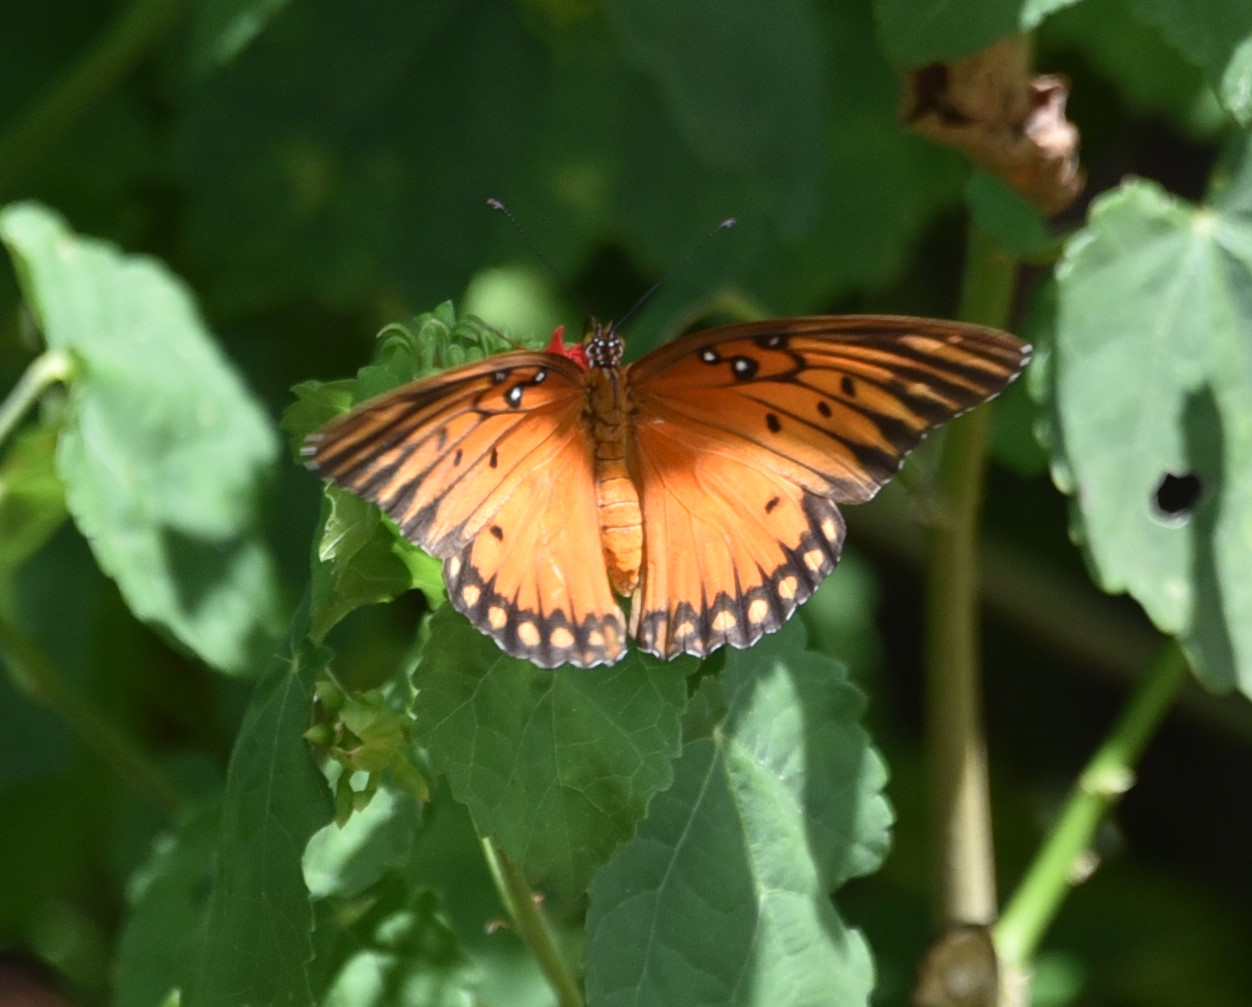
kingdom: Animalia
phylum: Arthropoda
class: Insecta
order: Lepidoptera
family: Nymphalidae
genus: Dione
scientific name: Dione vanillae
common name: Gulf fritillary
